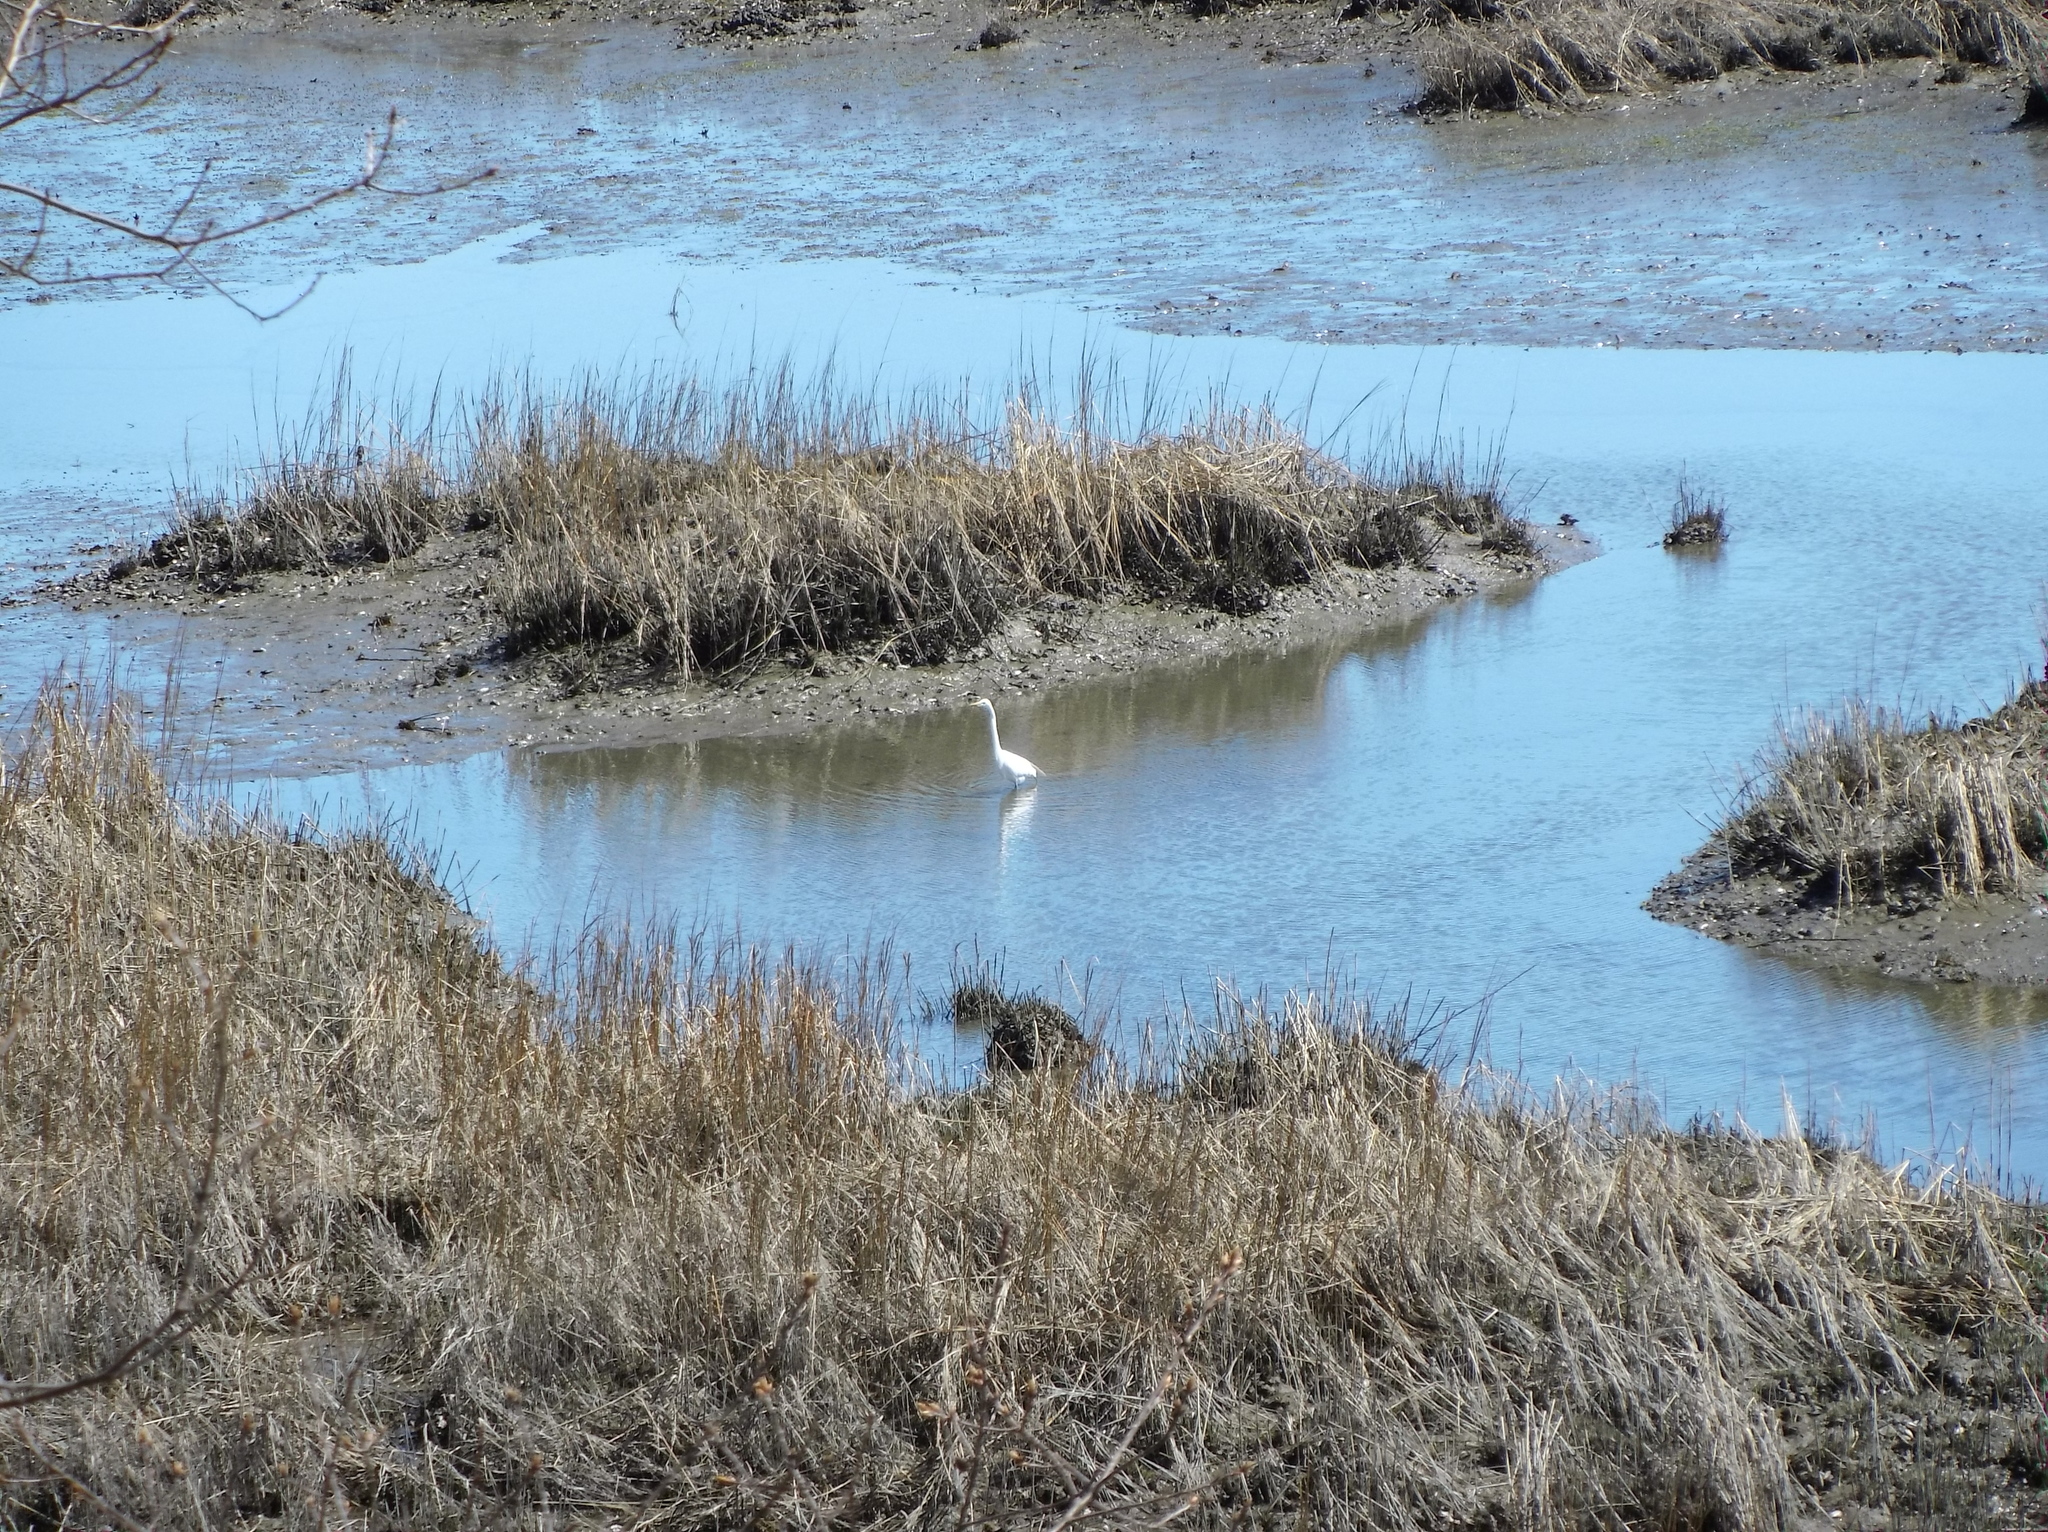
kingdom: Animalia
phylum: Chordata
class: Aves
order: Pelecaniformes
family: Ardeidae
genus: Ardea
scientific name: Ardea alba
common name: Great egret
